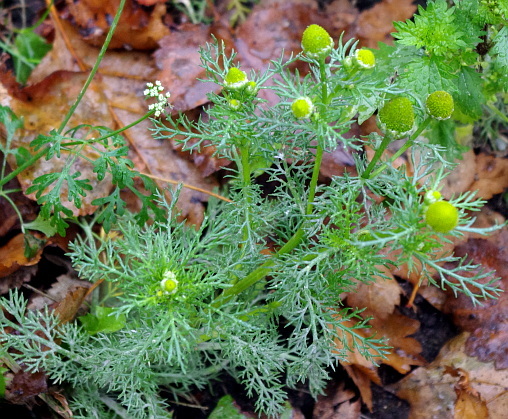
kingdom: Plantae
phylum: Tracheophyta
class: Magnoliopsida
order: Asterales
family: Asteraceae
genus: Matricaria
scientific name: Matricaria discoidea
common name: Disc mayweed
